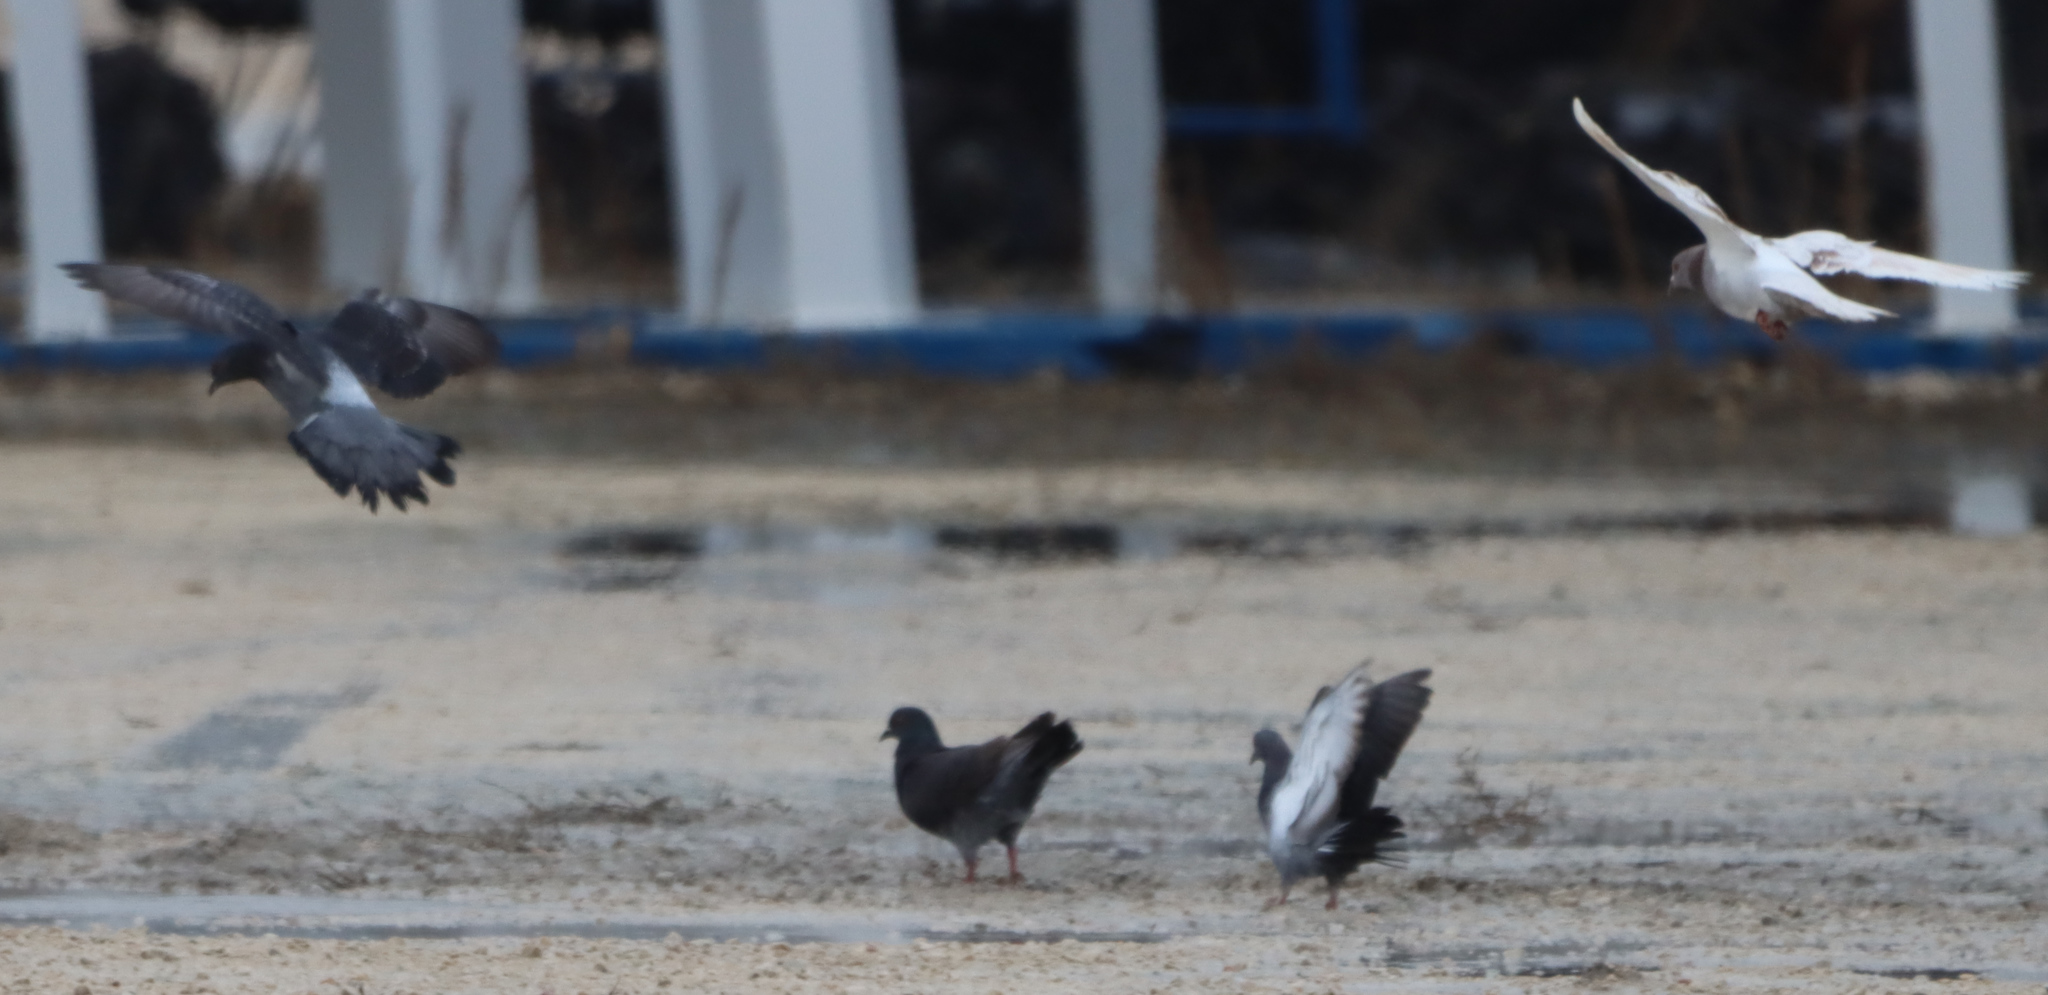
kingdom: Animalia
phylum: Chordata
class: Aves
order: Columbiformes
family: Columbidae
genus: Columba
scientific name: Columba livia
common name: Rock pigeon
